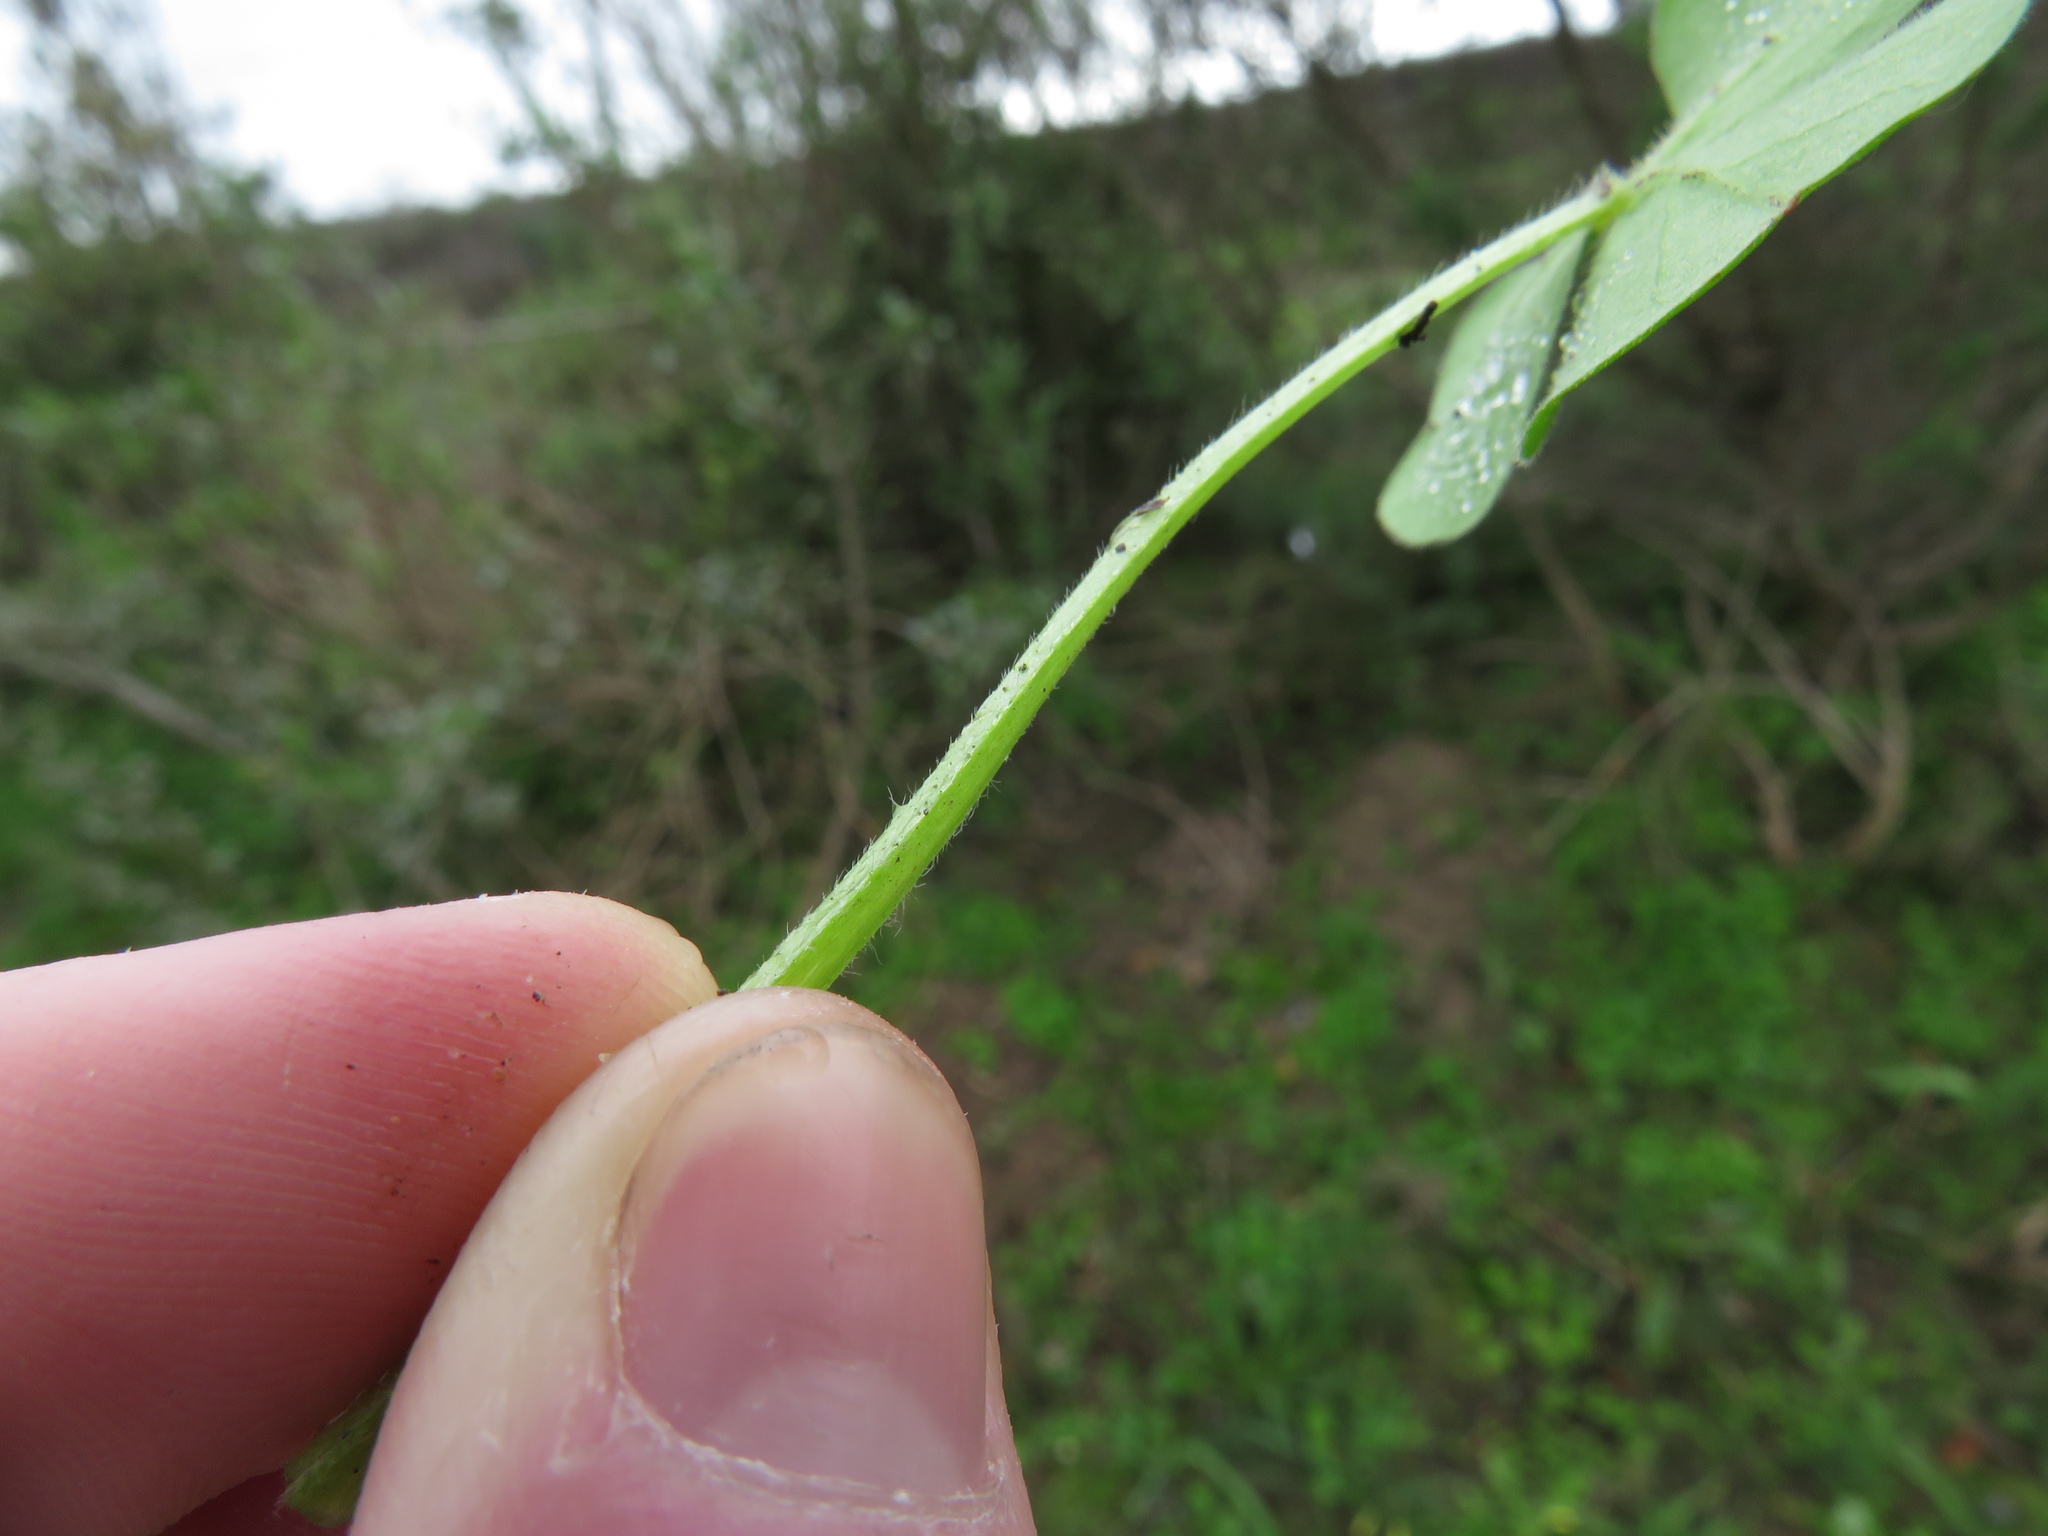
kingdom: Plantae
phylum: Tracheophyta
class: Magnoliopsida
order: Oxalidales
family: Oxalidaceae
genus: Oxalis
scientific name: Oxalis compressa
